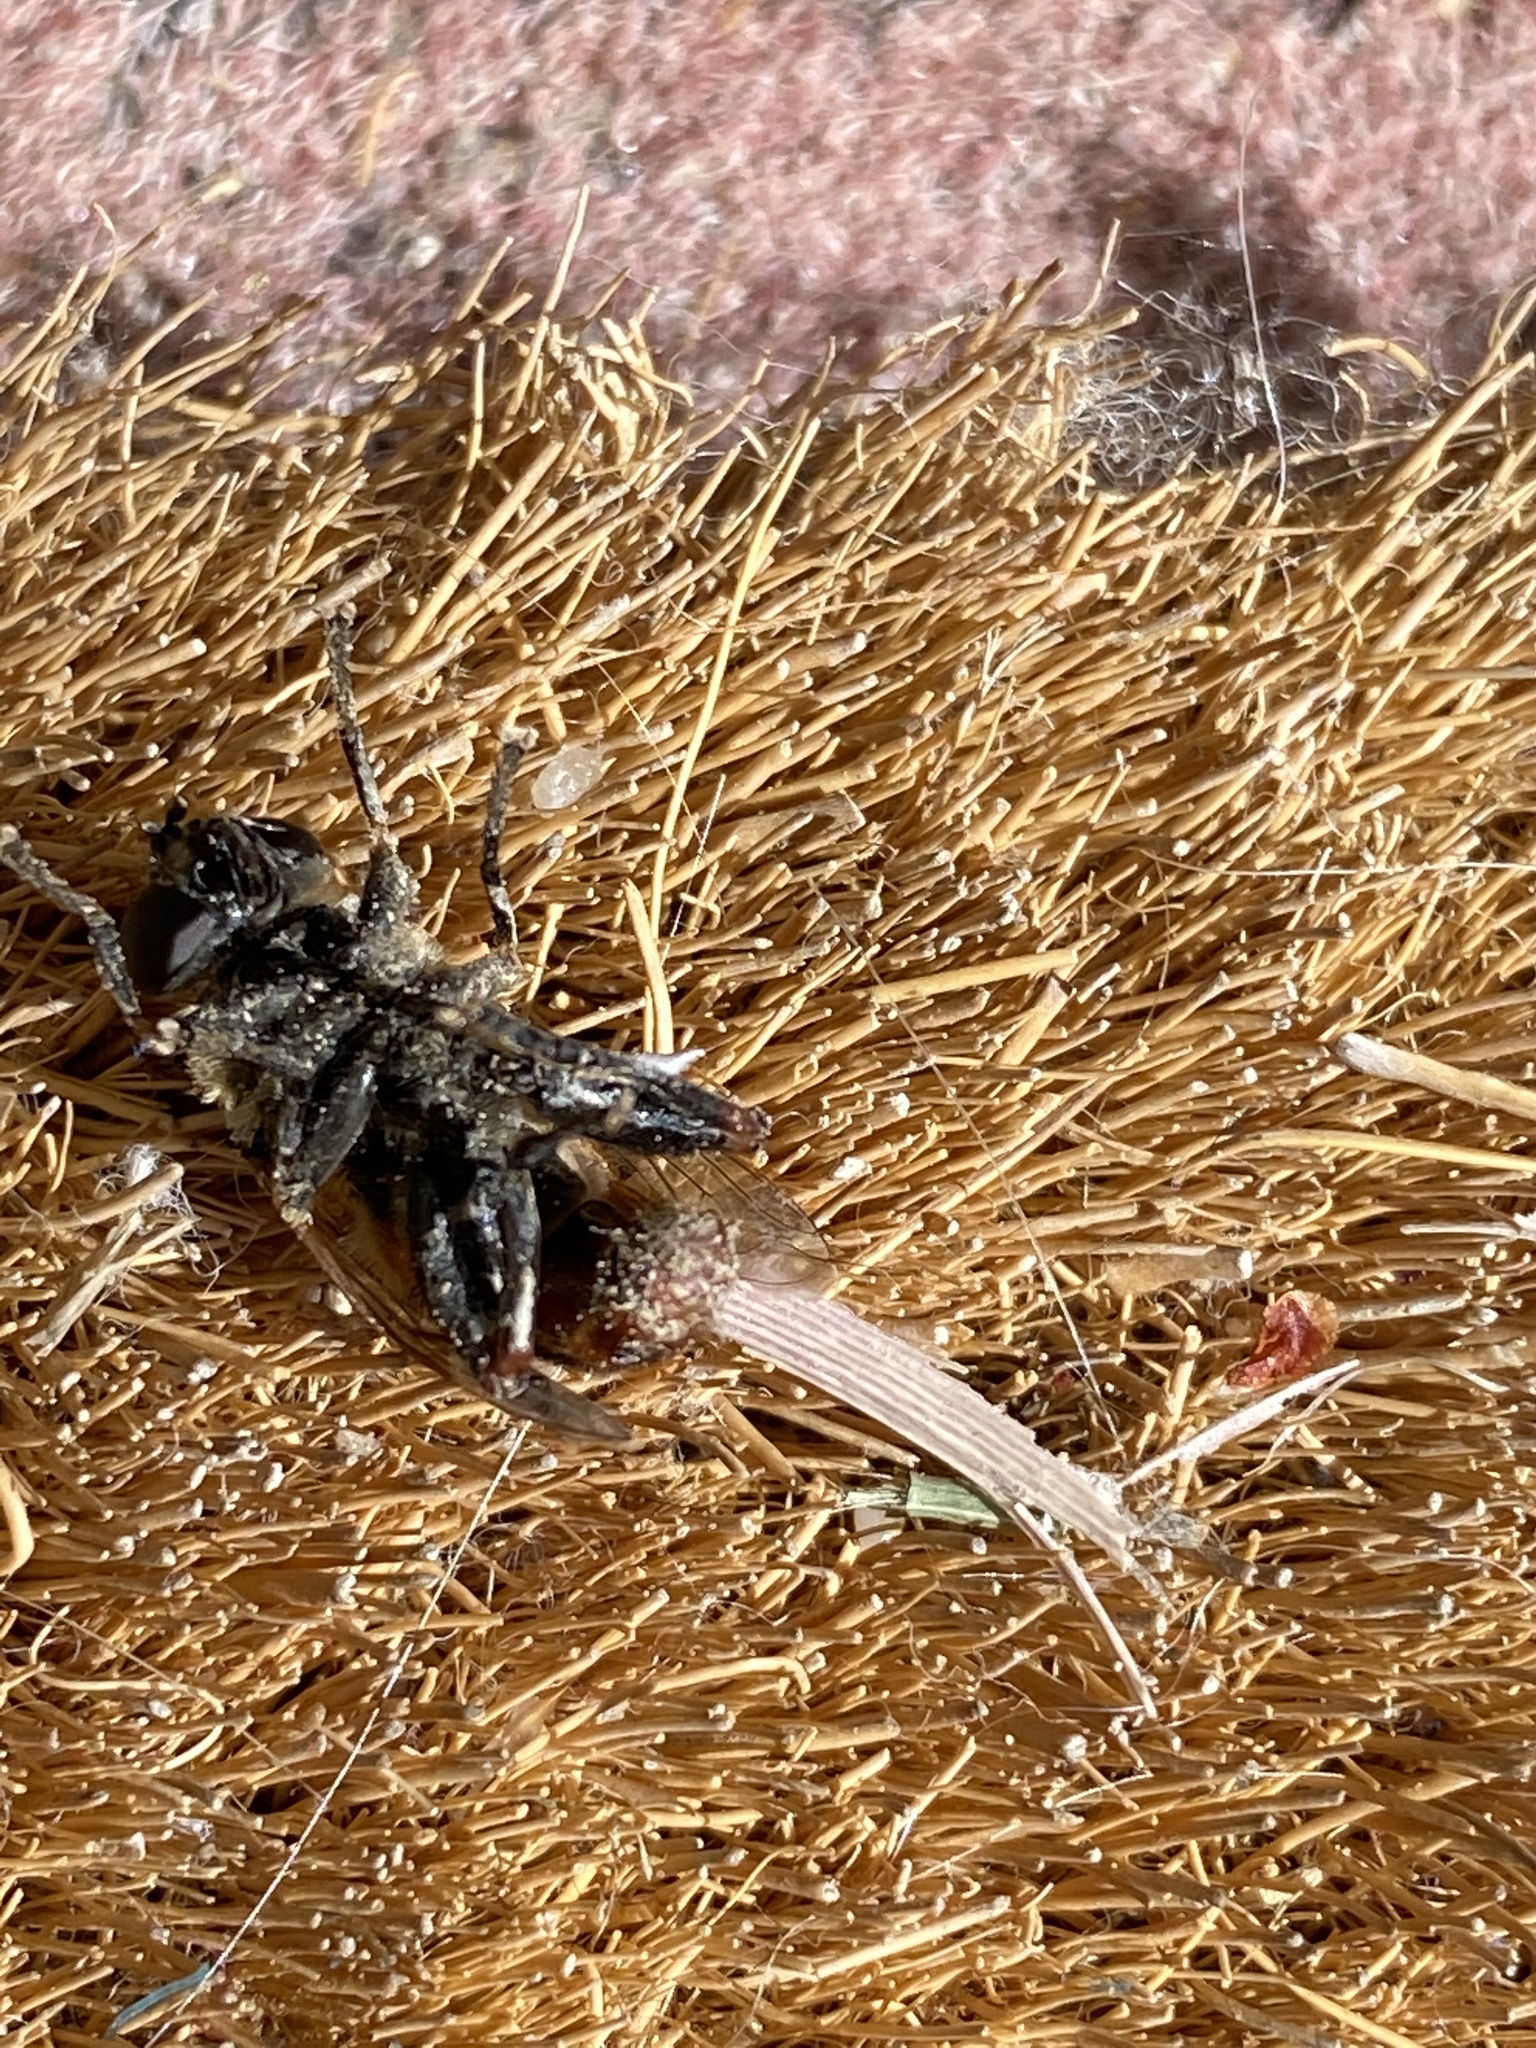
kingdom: Animalia
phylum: Arthropoda
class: Insecta
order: Diptera
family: Syrphidae
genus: Polydontomyia
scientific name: Polydontomyia curvipes
